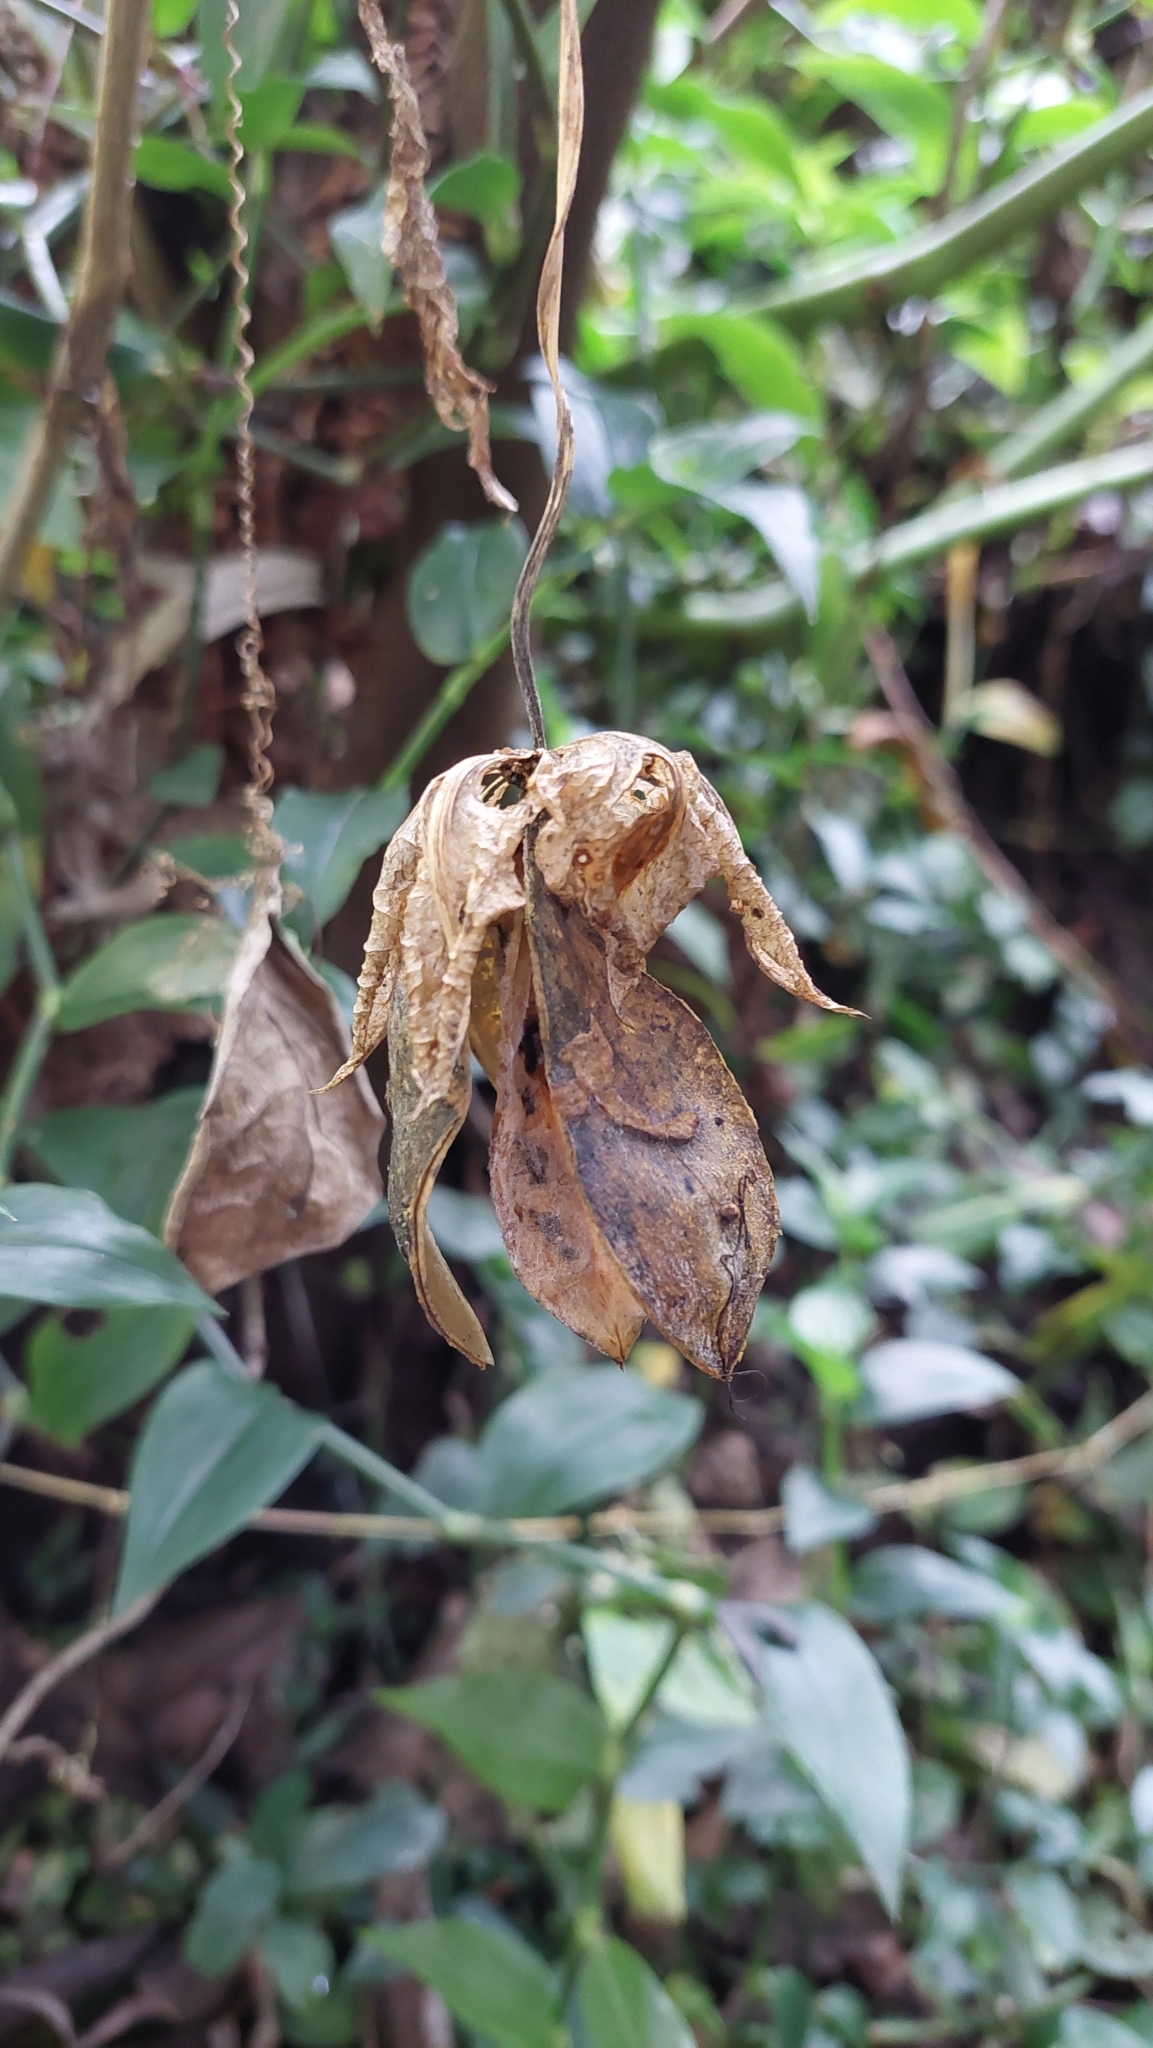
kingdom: Plantae
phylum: Tracheophyta
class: Magnoliopsida
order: Ericales
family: Polemoniaceae
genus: Cobaea
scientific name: Cobaea scandens
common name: Cup-and-saucer-vine
